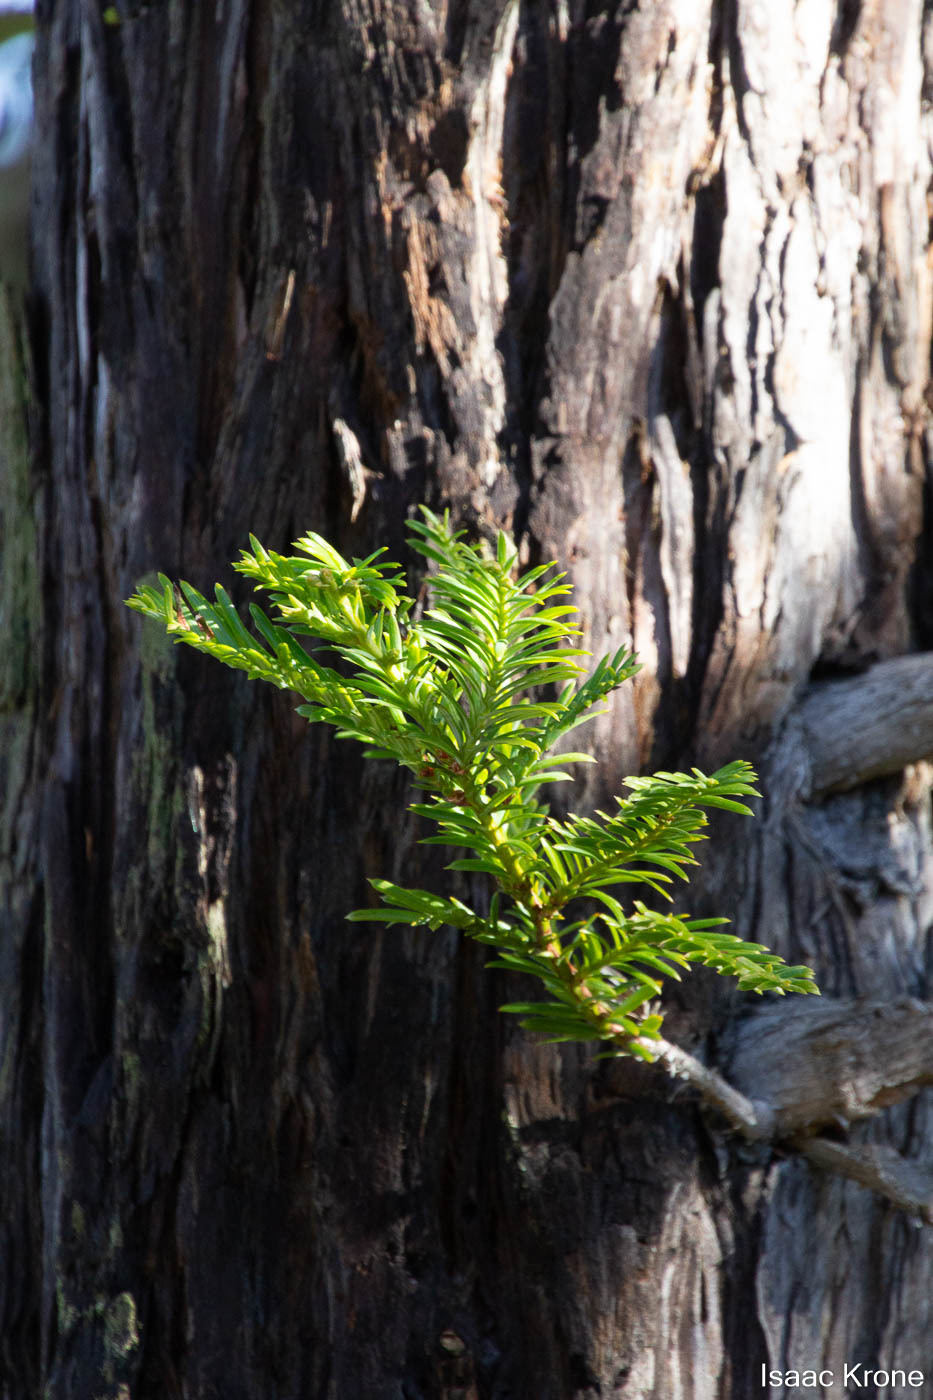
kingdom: Plantae
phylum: Tracheophyta
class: Pinopsida
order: Pinales
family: Cupressaceae
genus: Sequoia
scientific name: Sequoia sempervirens
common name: Coast redwood
